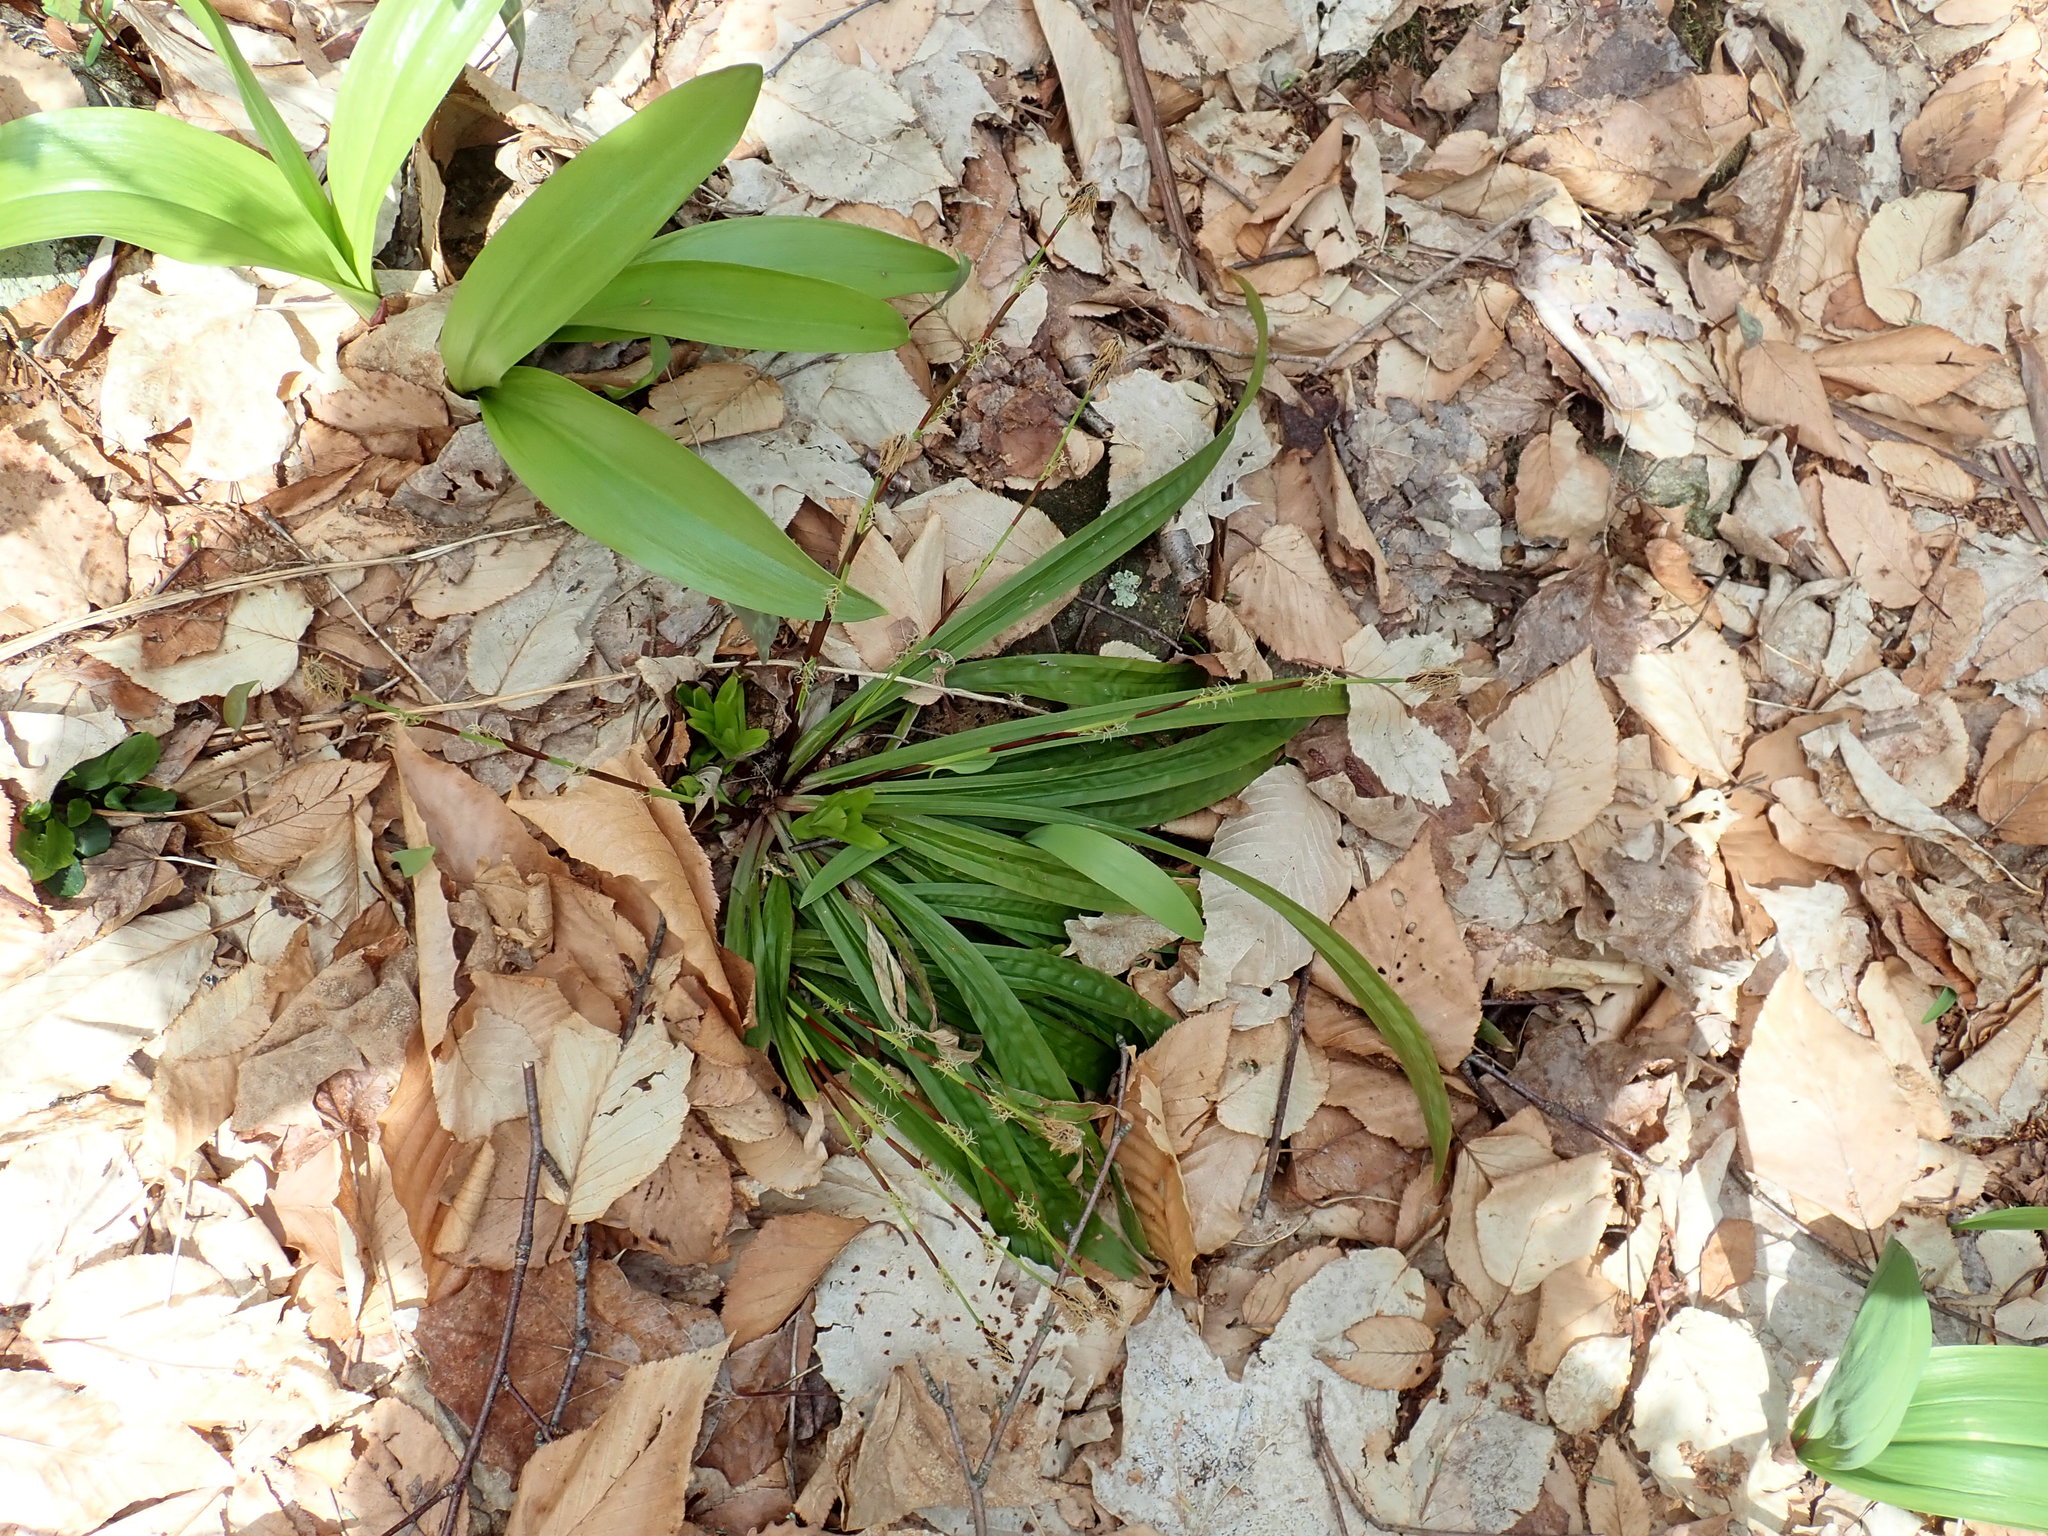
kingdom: Plantae
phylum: Tracheophyta
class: Liliopsida
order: Poales
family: Cyperaceae
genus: Carex
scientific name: Carex plantaginea
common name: Plantain-leaved sedge
